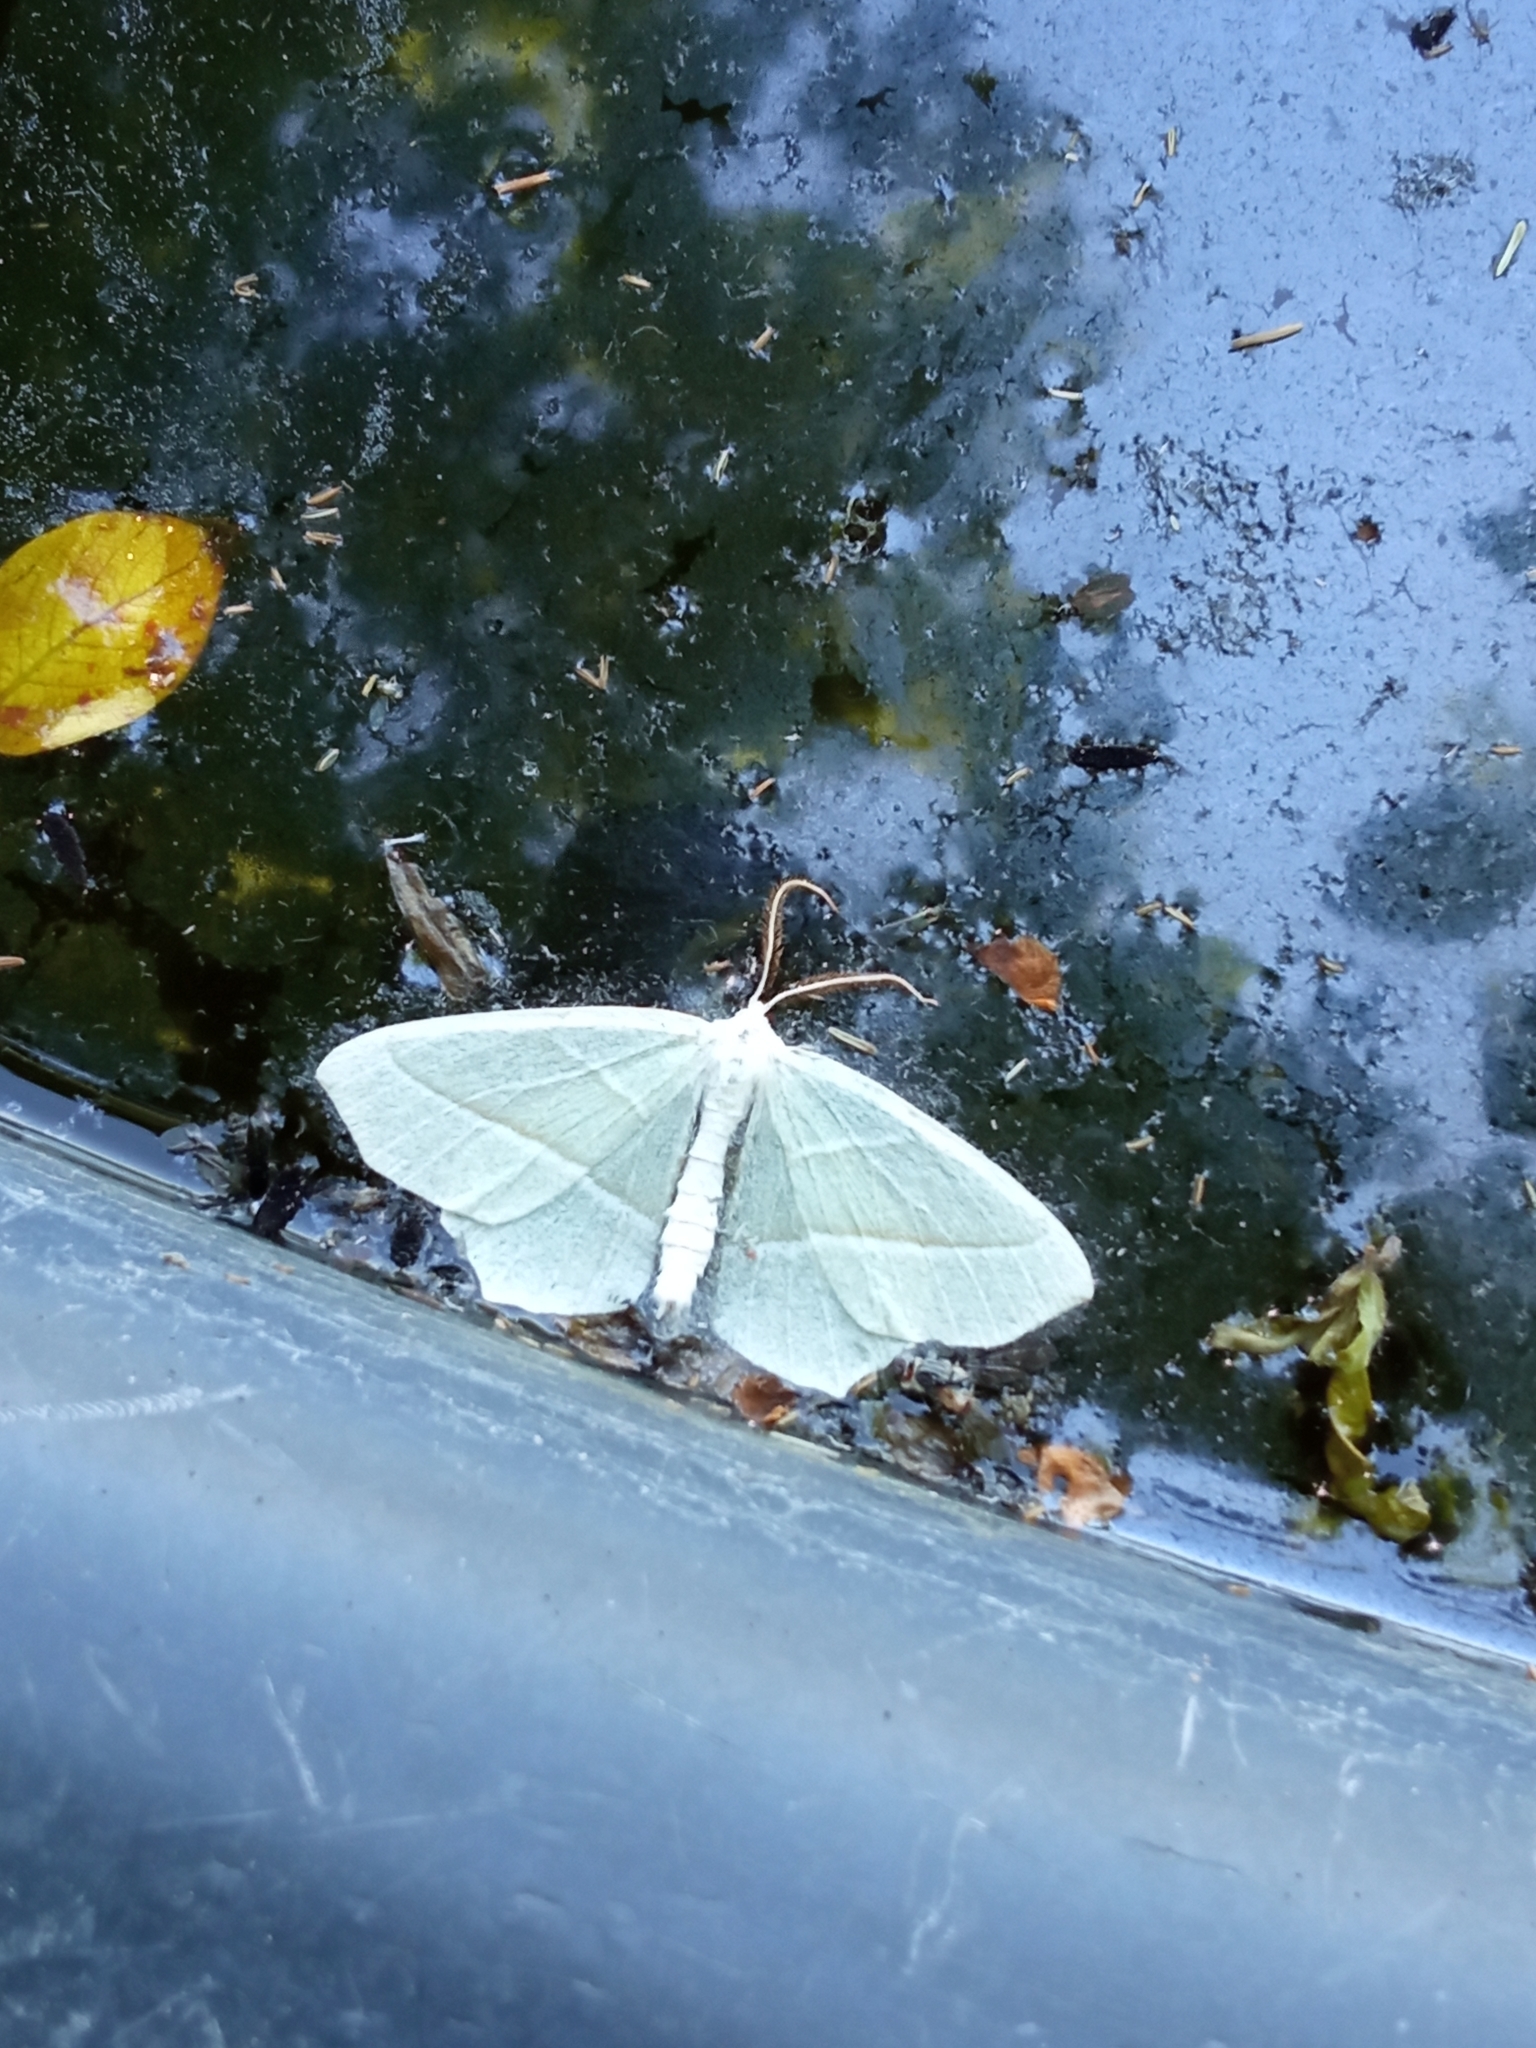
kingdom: Animalia
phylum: Arthropoda
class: Insecta
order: Lepidoptera
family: Geometridae
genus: Campaea
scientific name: Campaea margaritaria
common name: Light emerald
